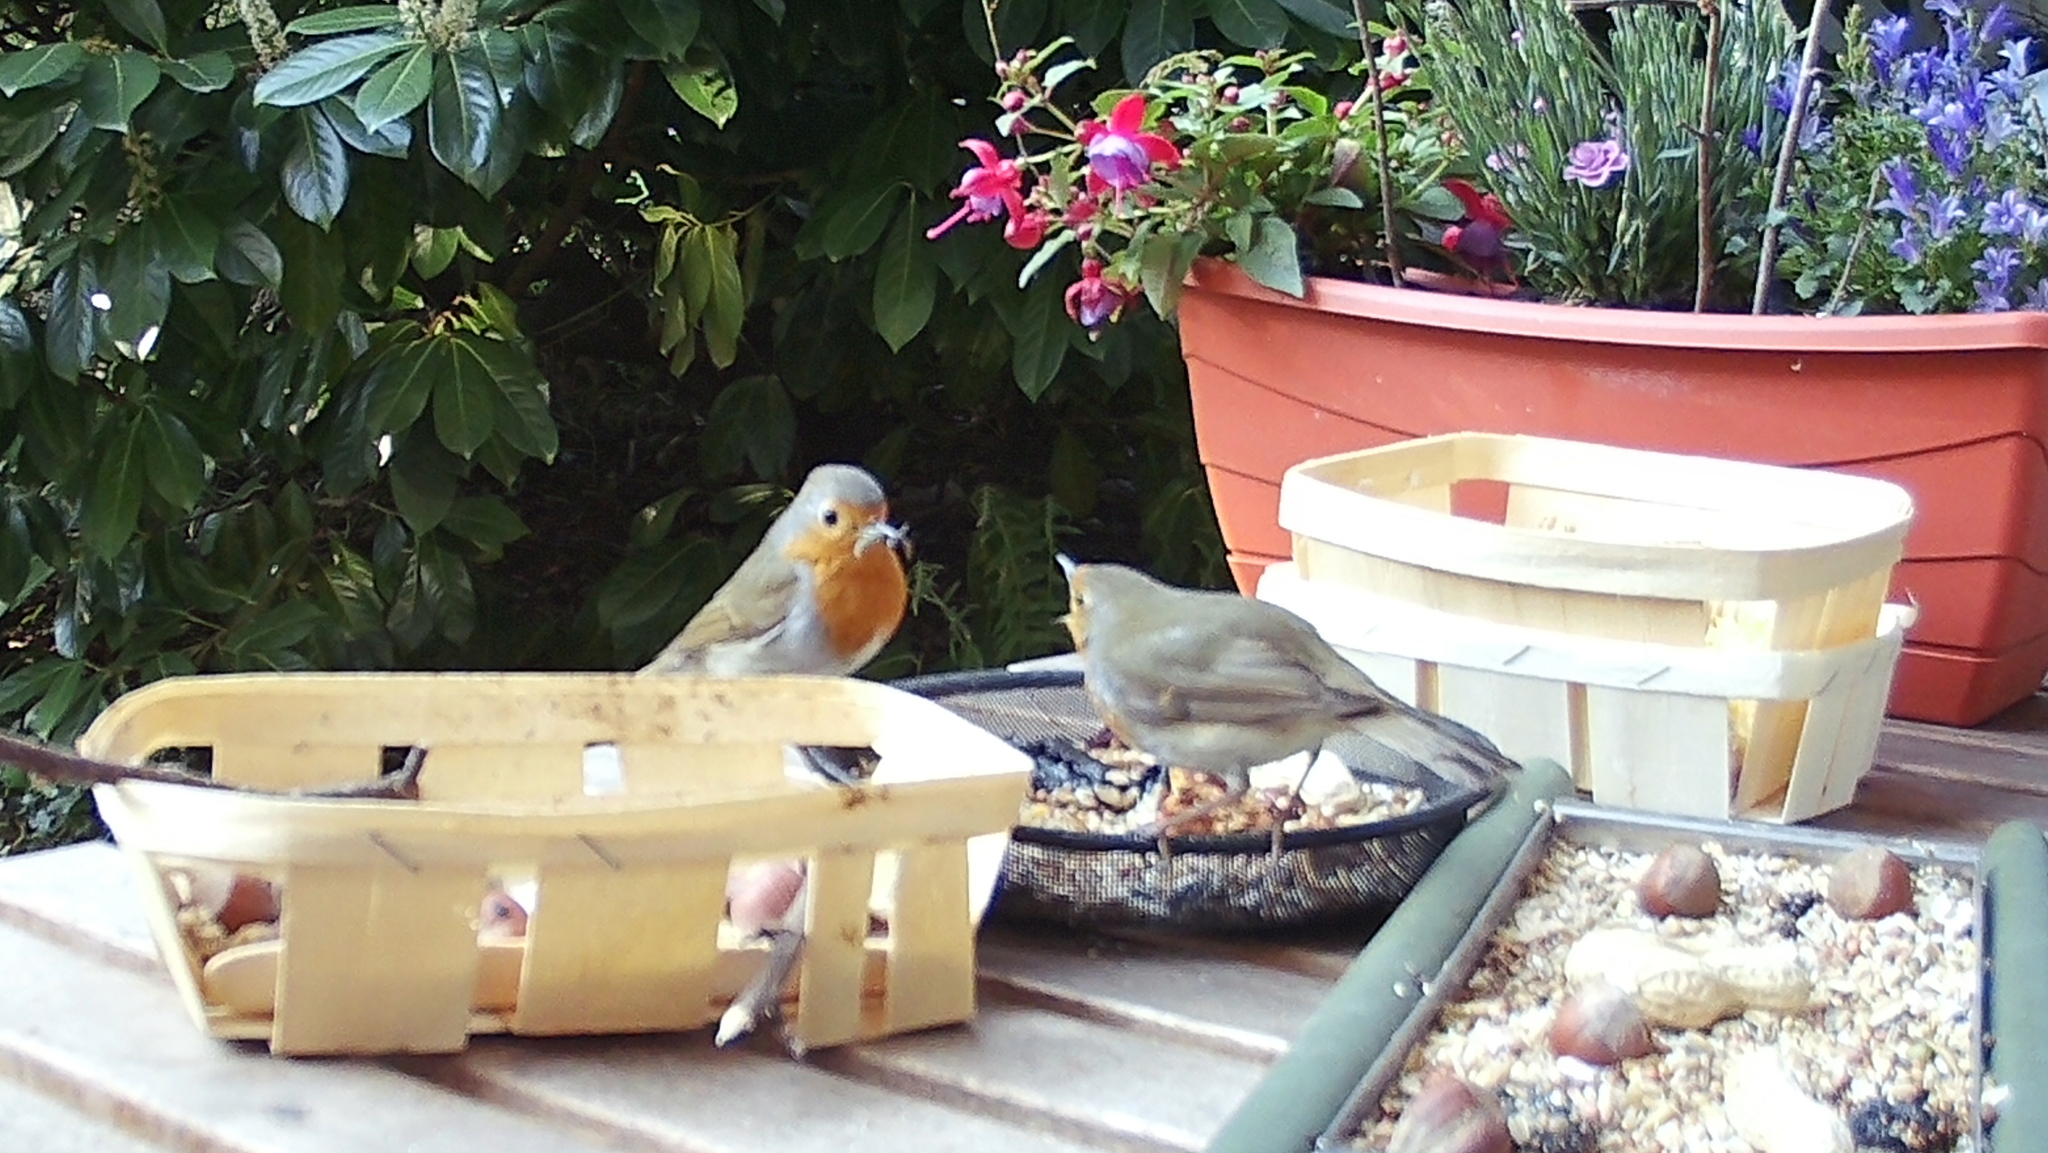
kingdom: Animalia
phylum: Chordata
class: Aves
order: Passeriformes
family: Muscicapidae
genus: Erithacus
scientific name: Erithacus rubecula
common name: European robin
